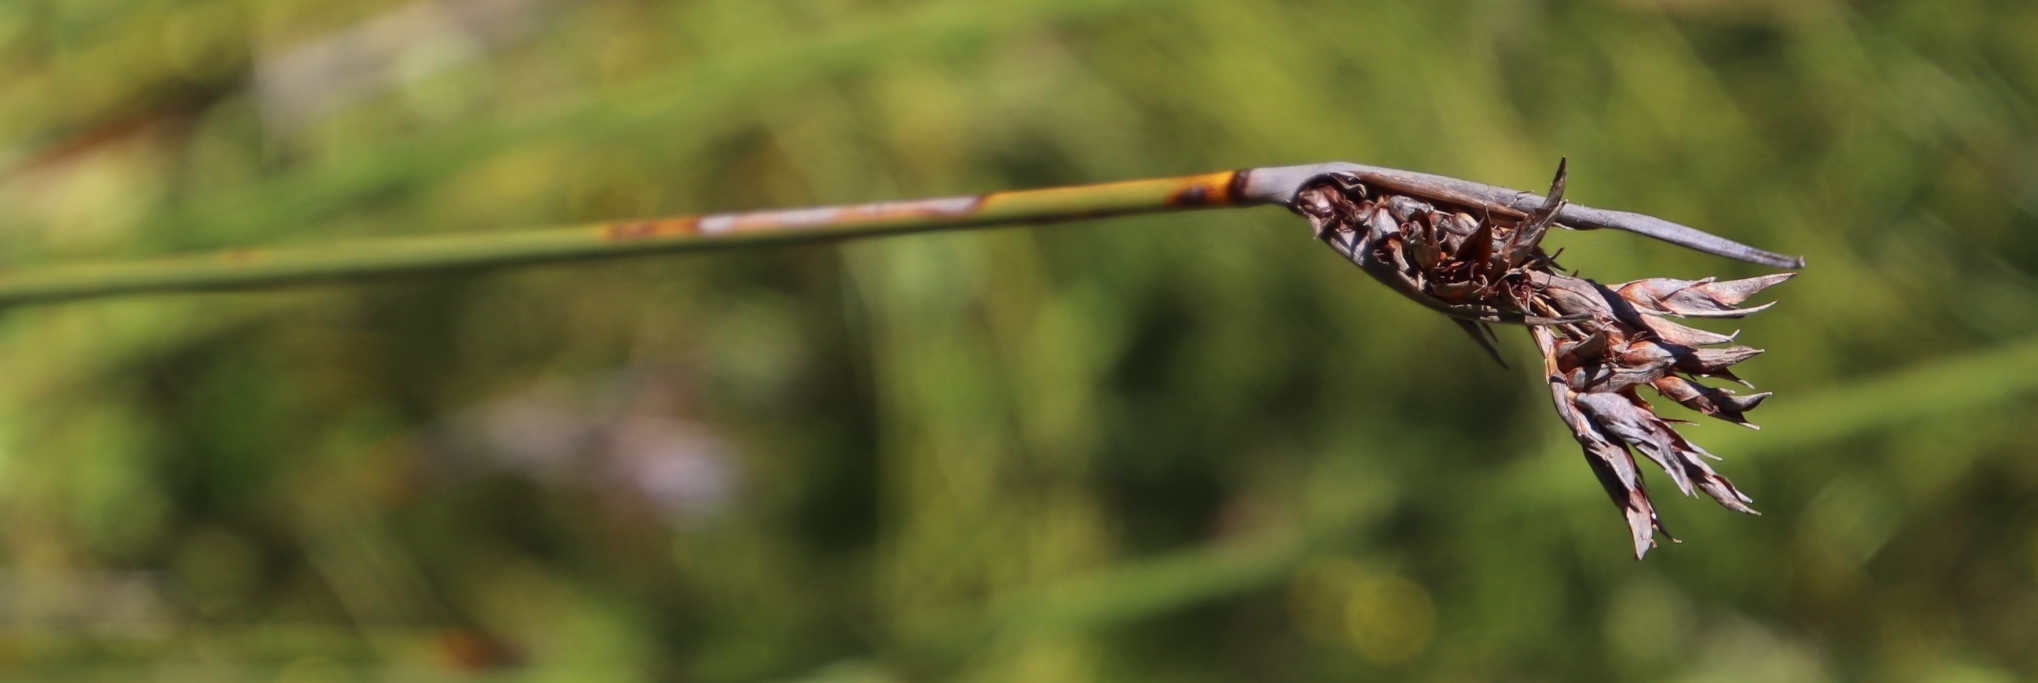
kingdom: Plantae
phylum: Tracheophyta
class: Liliopsida
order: Poales
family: Cyperaceae
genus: Neesenbeckia
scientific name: Neesenbeckia punctoria
